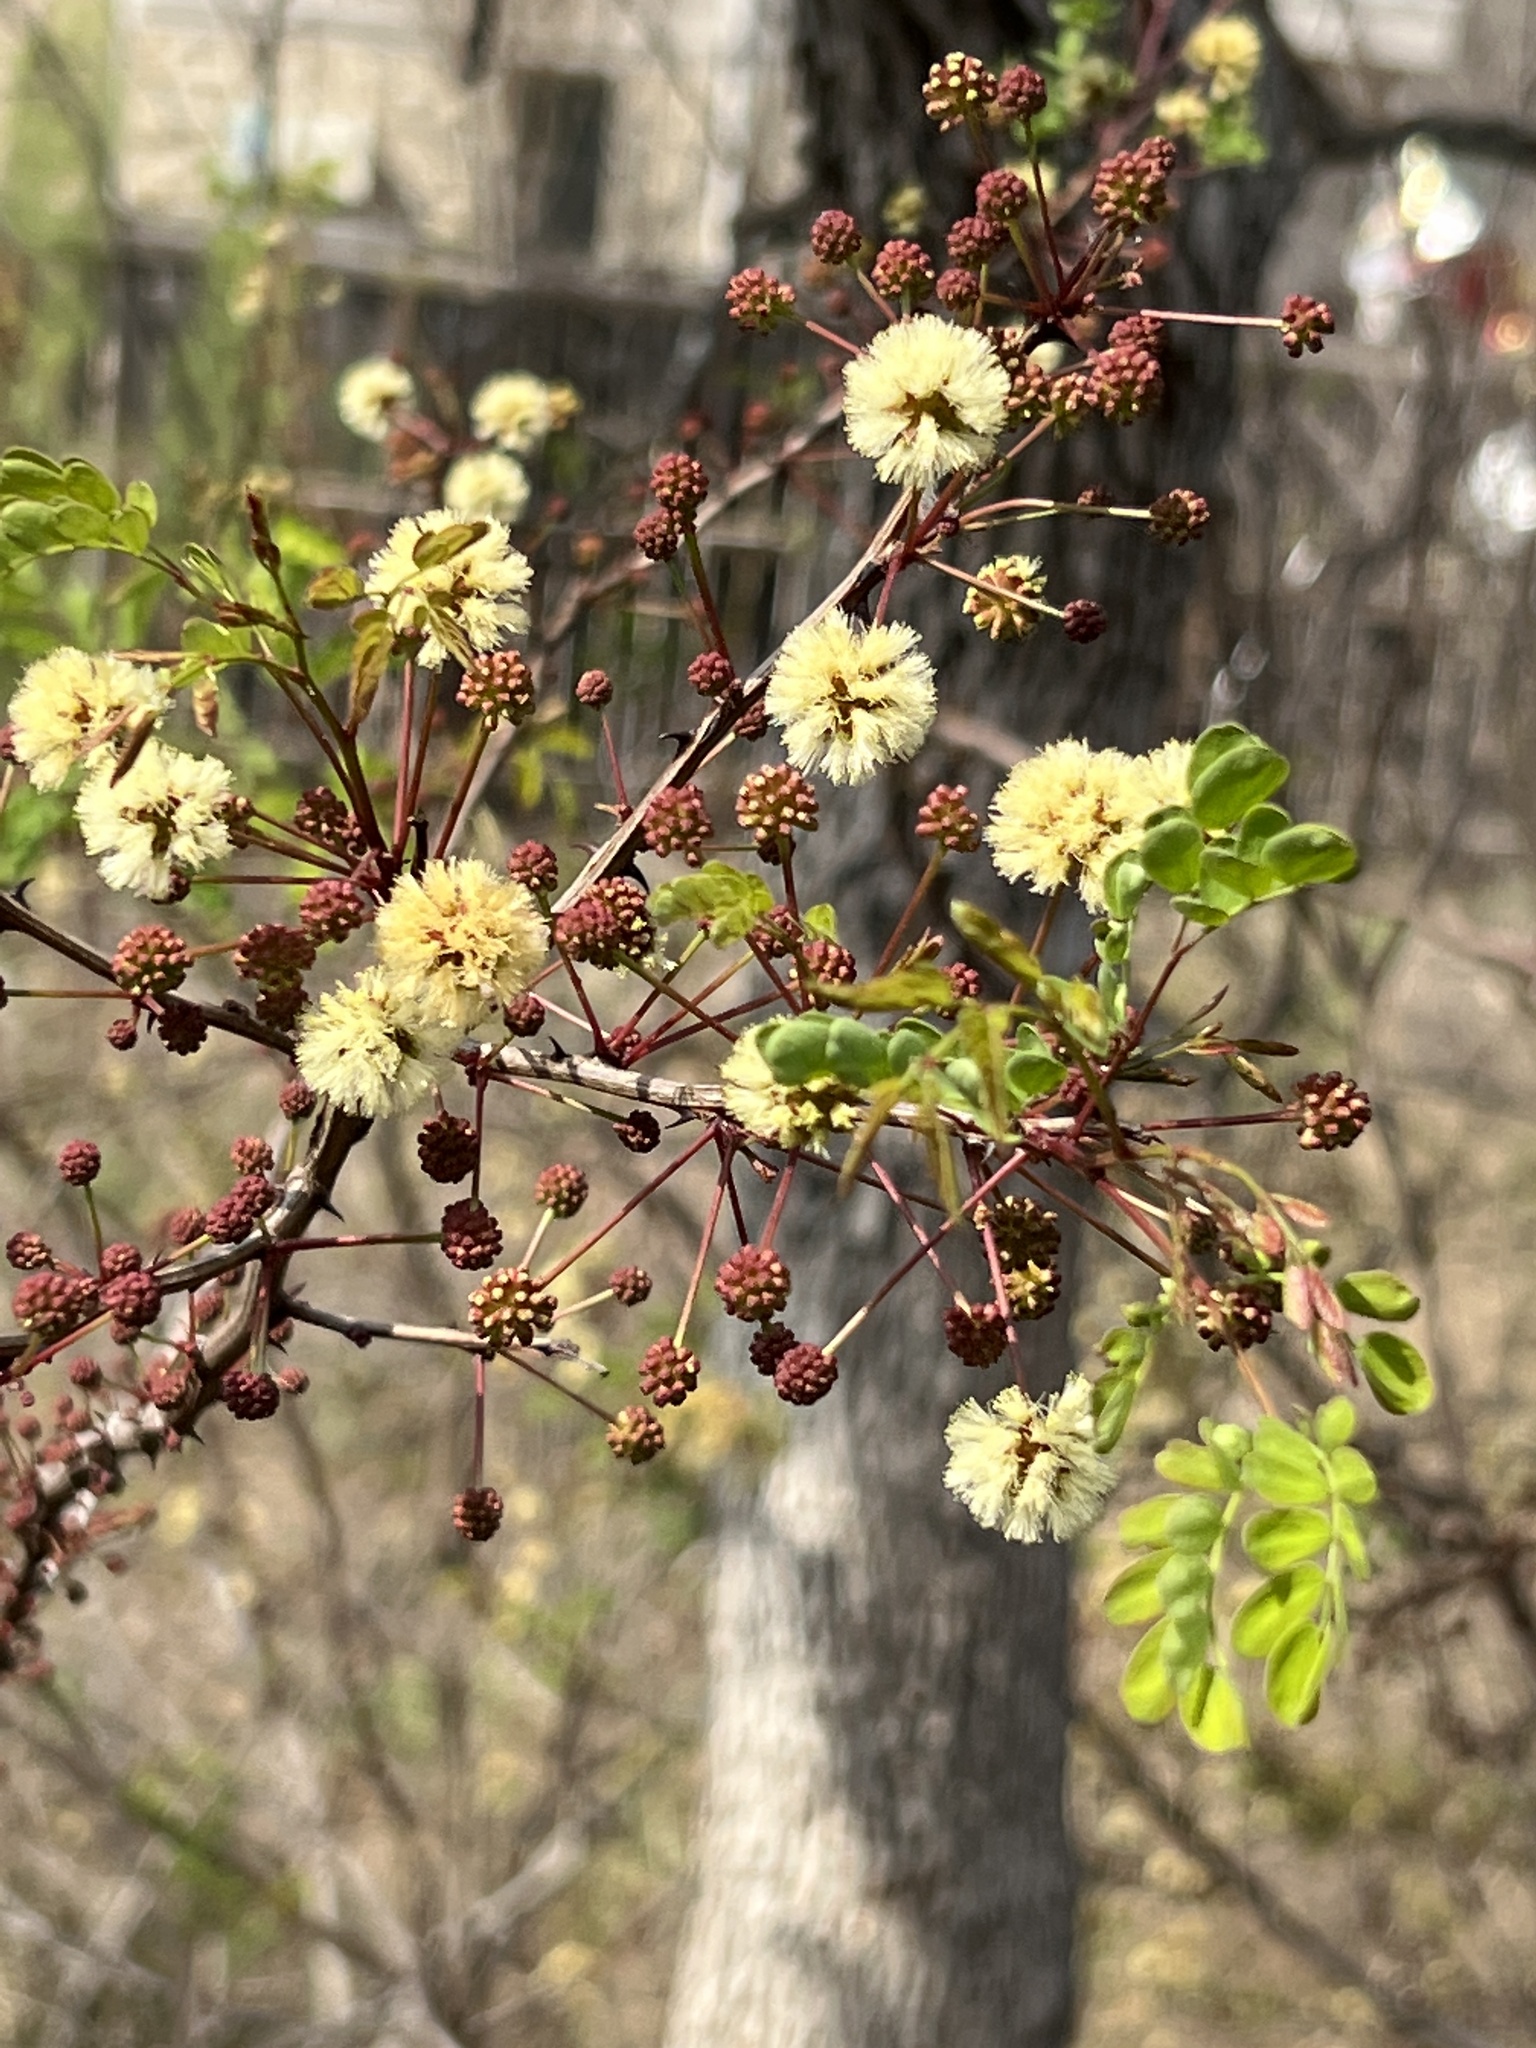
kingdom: Plantae
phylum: Tracheophyta
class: Magnoliopsida
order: Fabales
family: Fabaceae
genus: Senegalia
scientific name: Senegalia roemeriana
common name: Roemer's acacia
